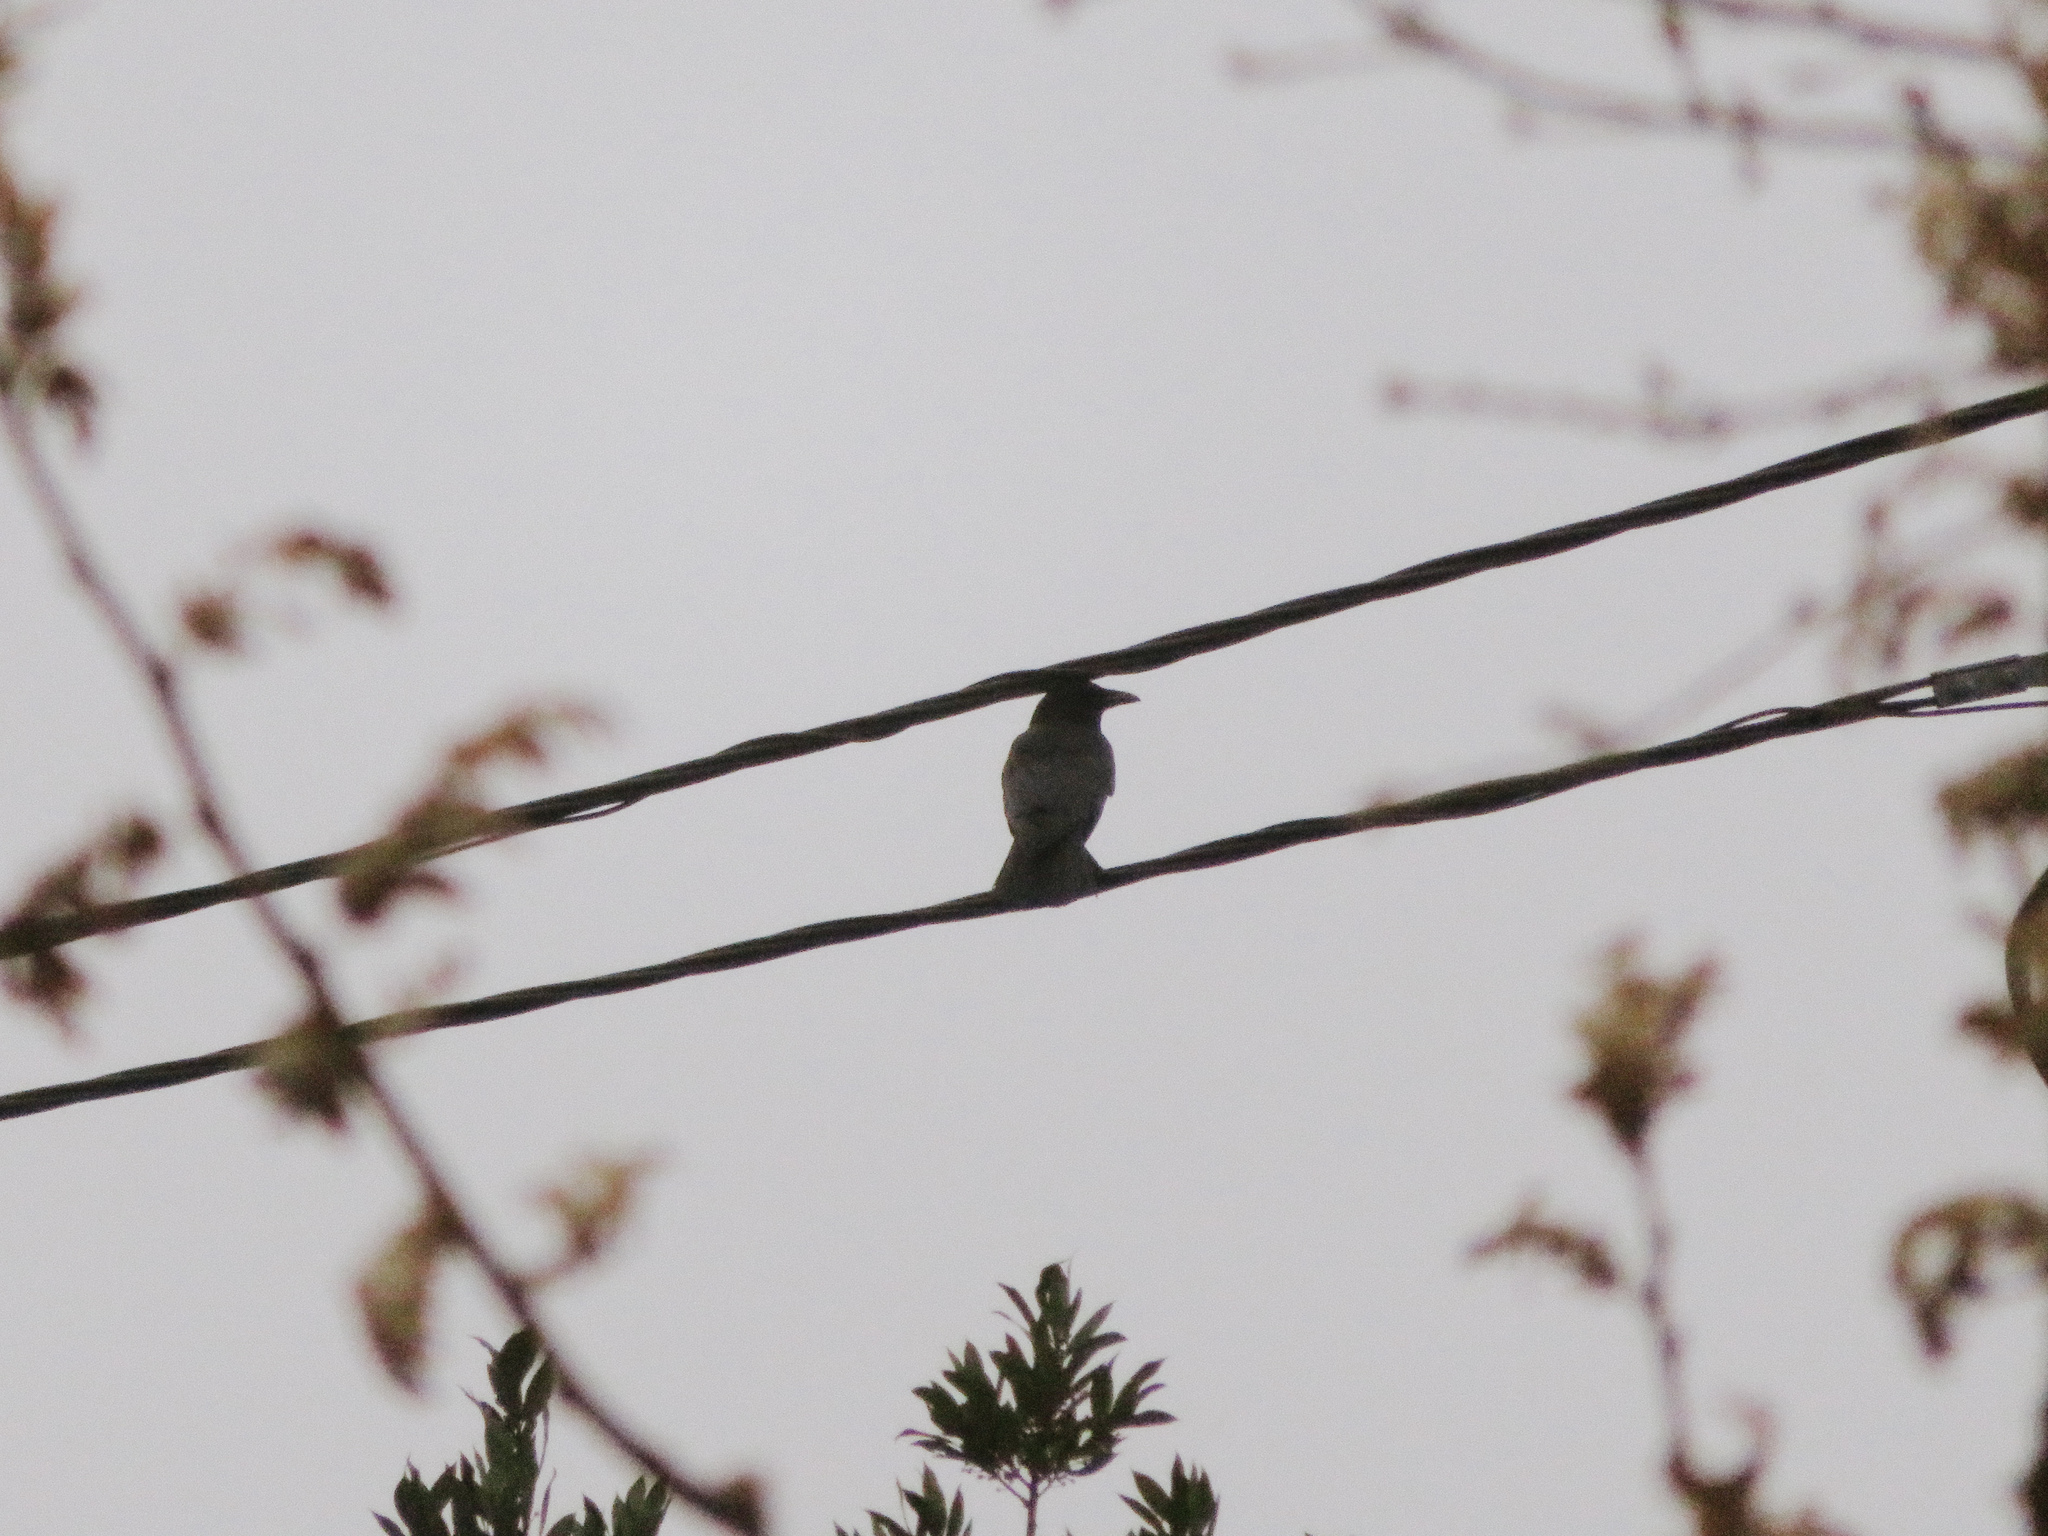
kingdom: Animalia
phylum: Chordata
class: Aves
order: Passeriformes
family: Corvidae
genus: Corvus
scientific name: Corvus corone
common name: Carrion crow
